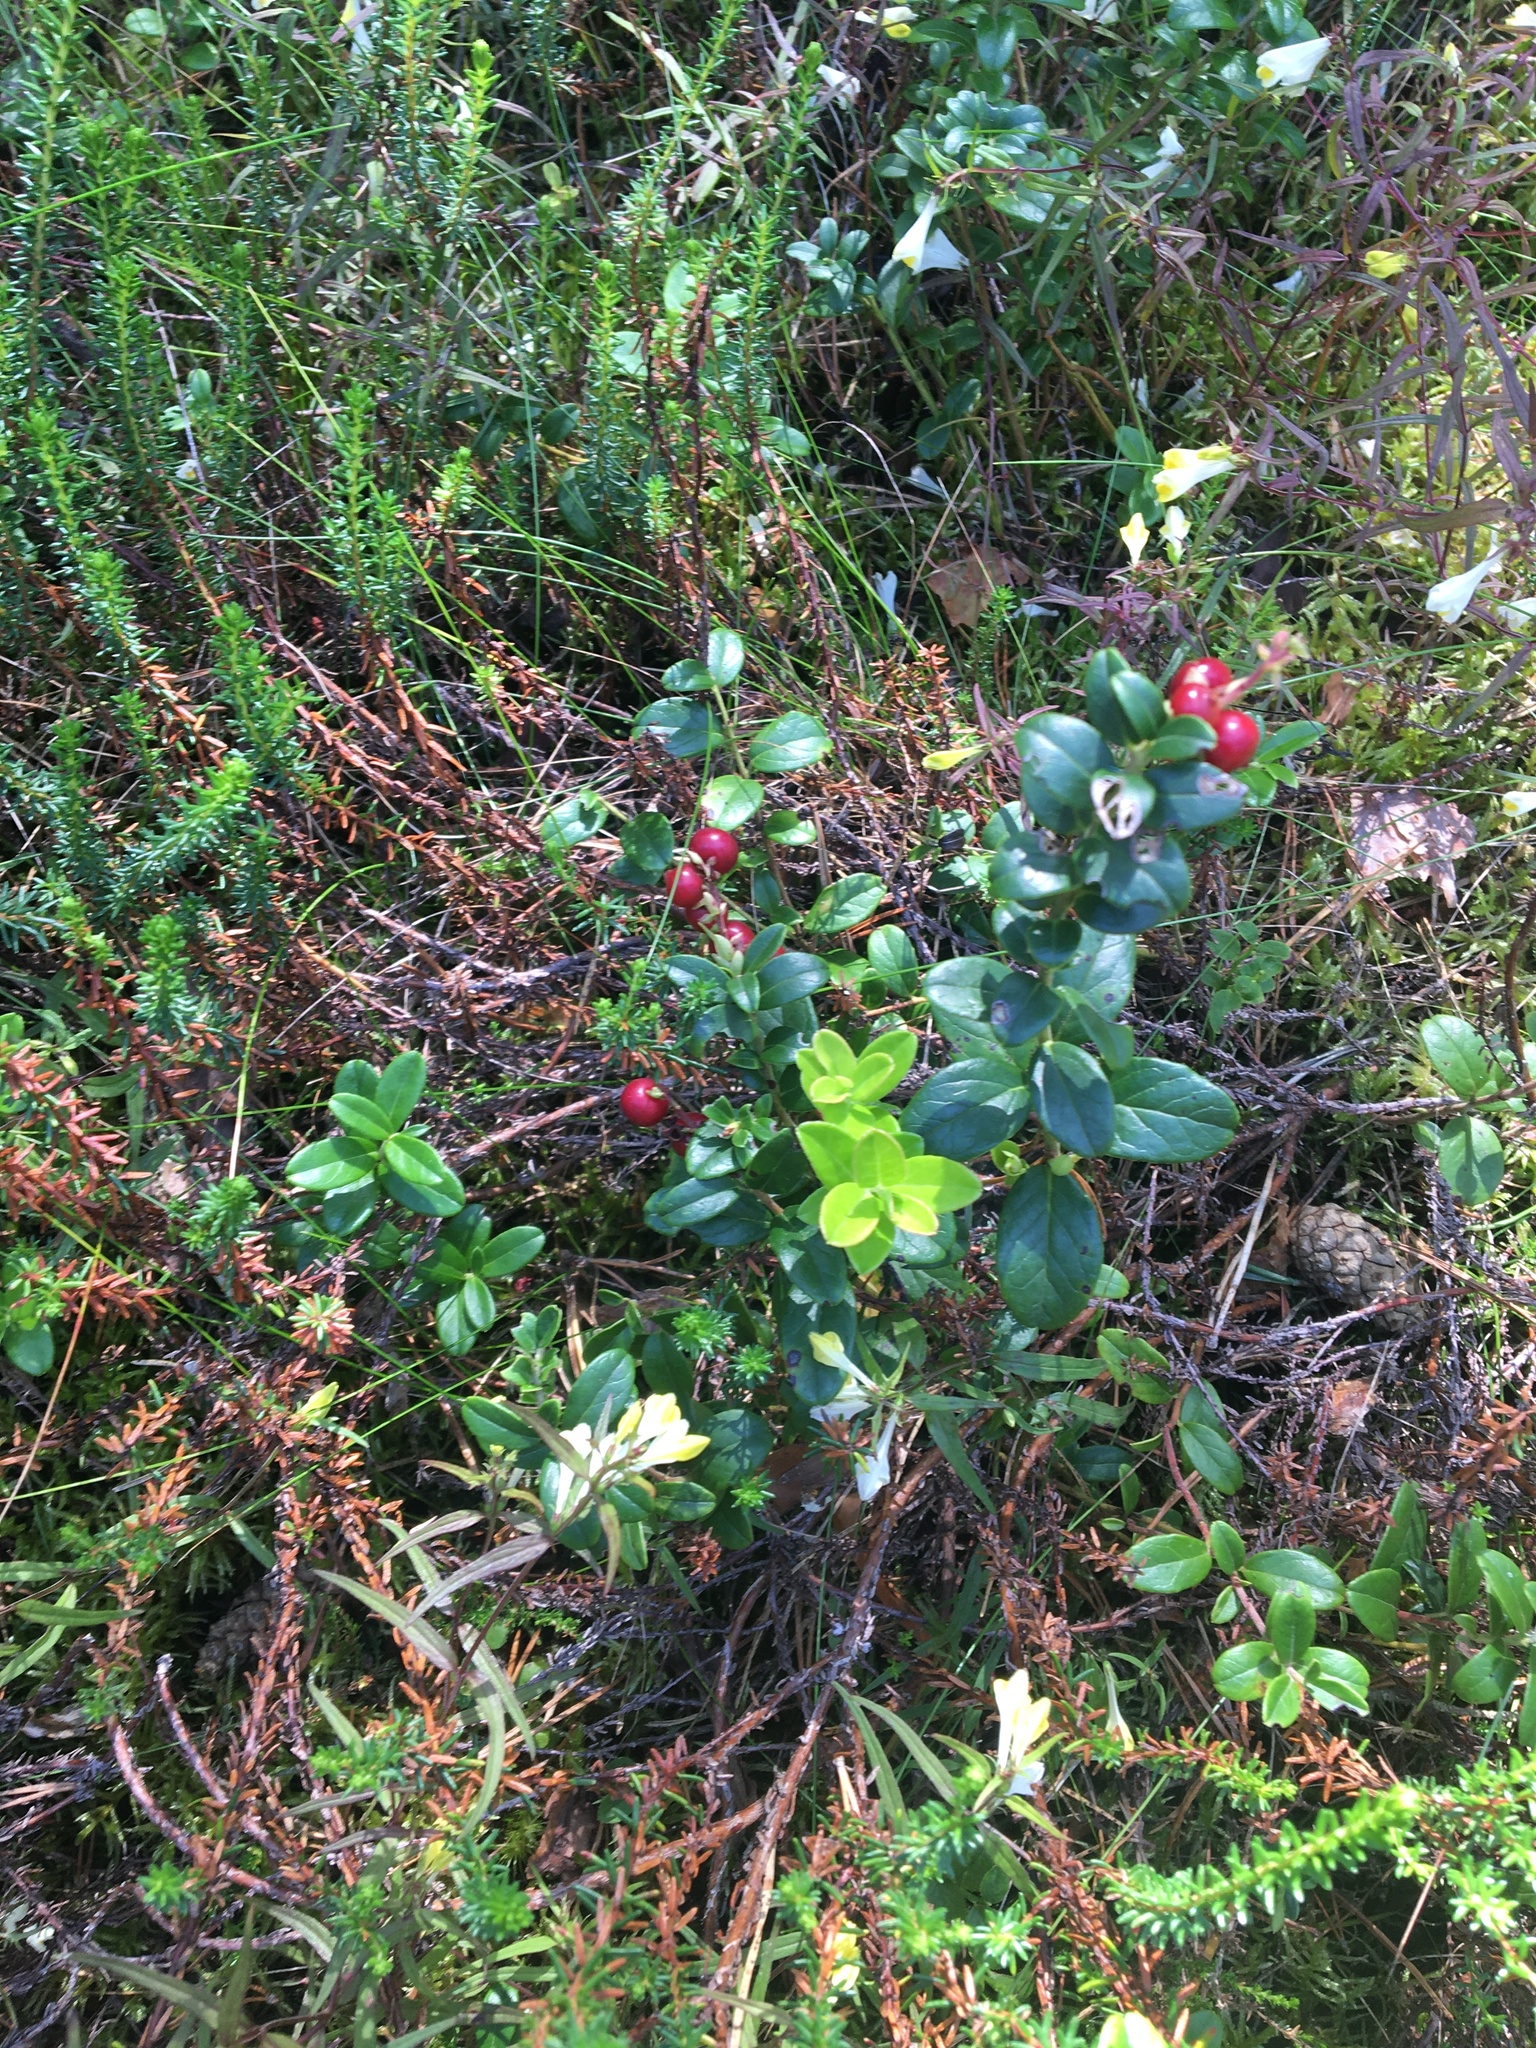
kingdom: Plantae
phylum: Tracheophyta
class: Magnoliopsida
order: Ericales
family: Ericaceae
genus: Vaccinium
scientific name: Vaccinium vitis-idaea
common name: Cowberry
